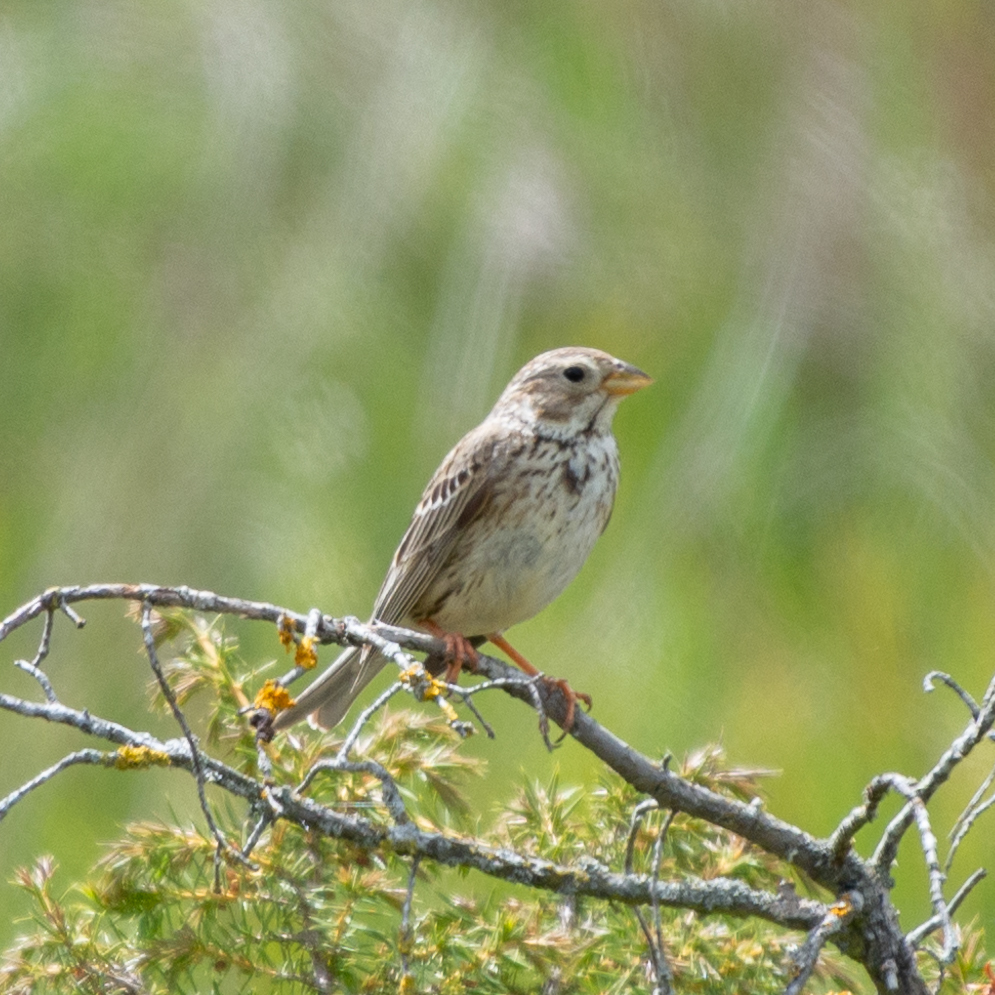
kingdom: Animalia
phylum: Chordata
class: Aves
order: Passeriformes
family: Emberizidae
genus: Emberiza
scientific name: Emberiza calandra
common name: Corn bunting
